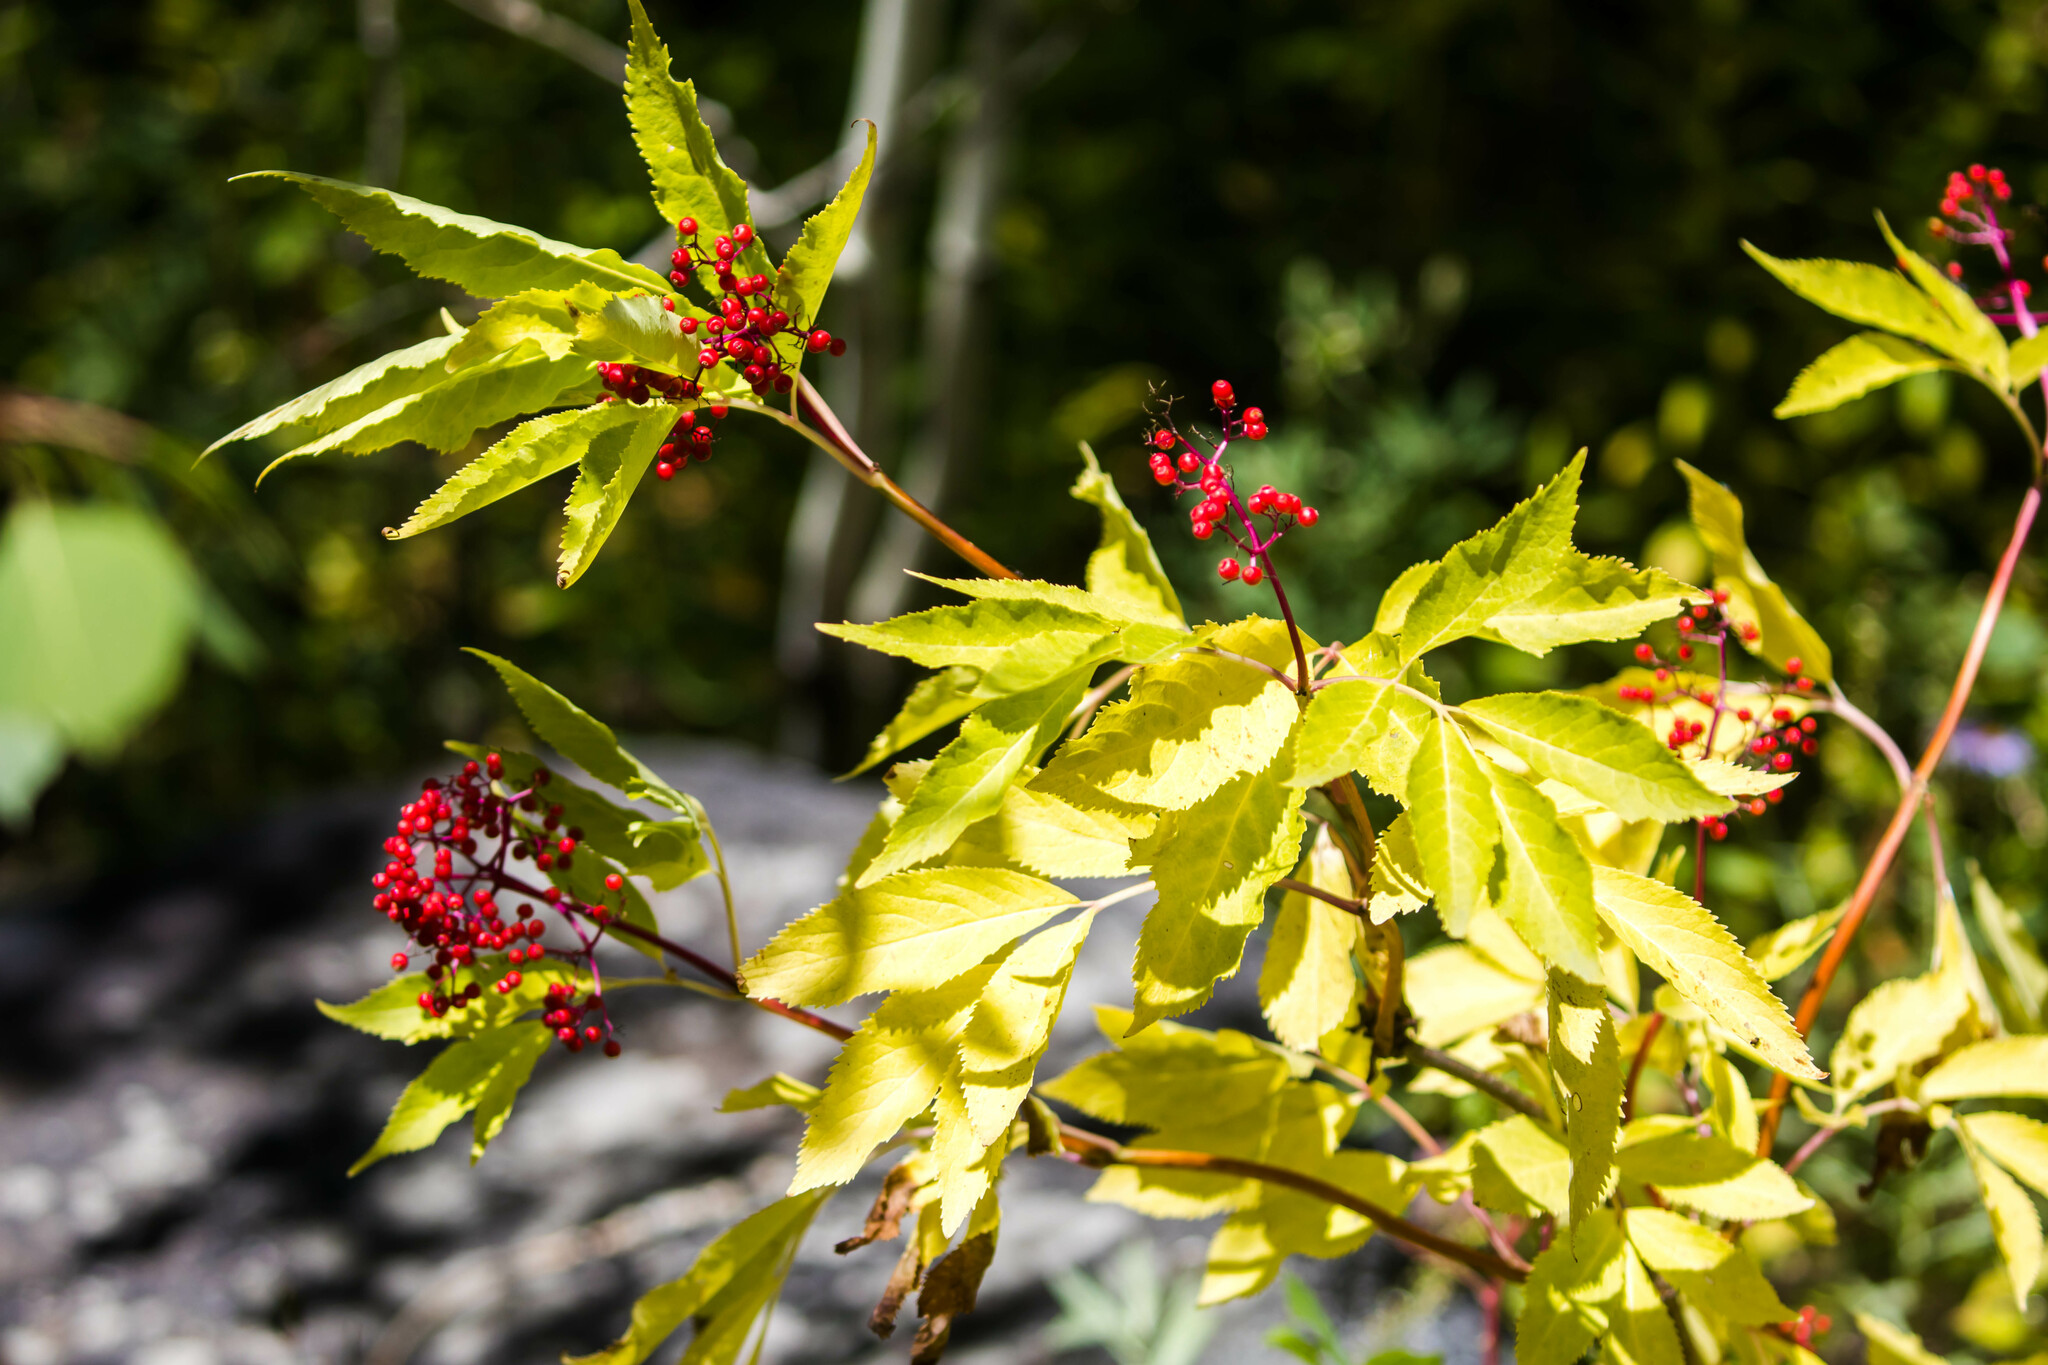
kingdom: Plantae
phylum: Tracheophyta
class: Magnoliopsida
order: Dipsacales
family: Viburnaceae
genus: Sambucus
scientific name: Sambucus racemosa
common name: Red-berried elder
